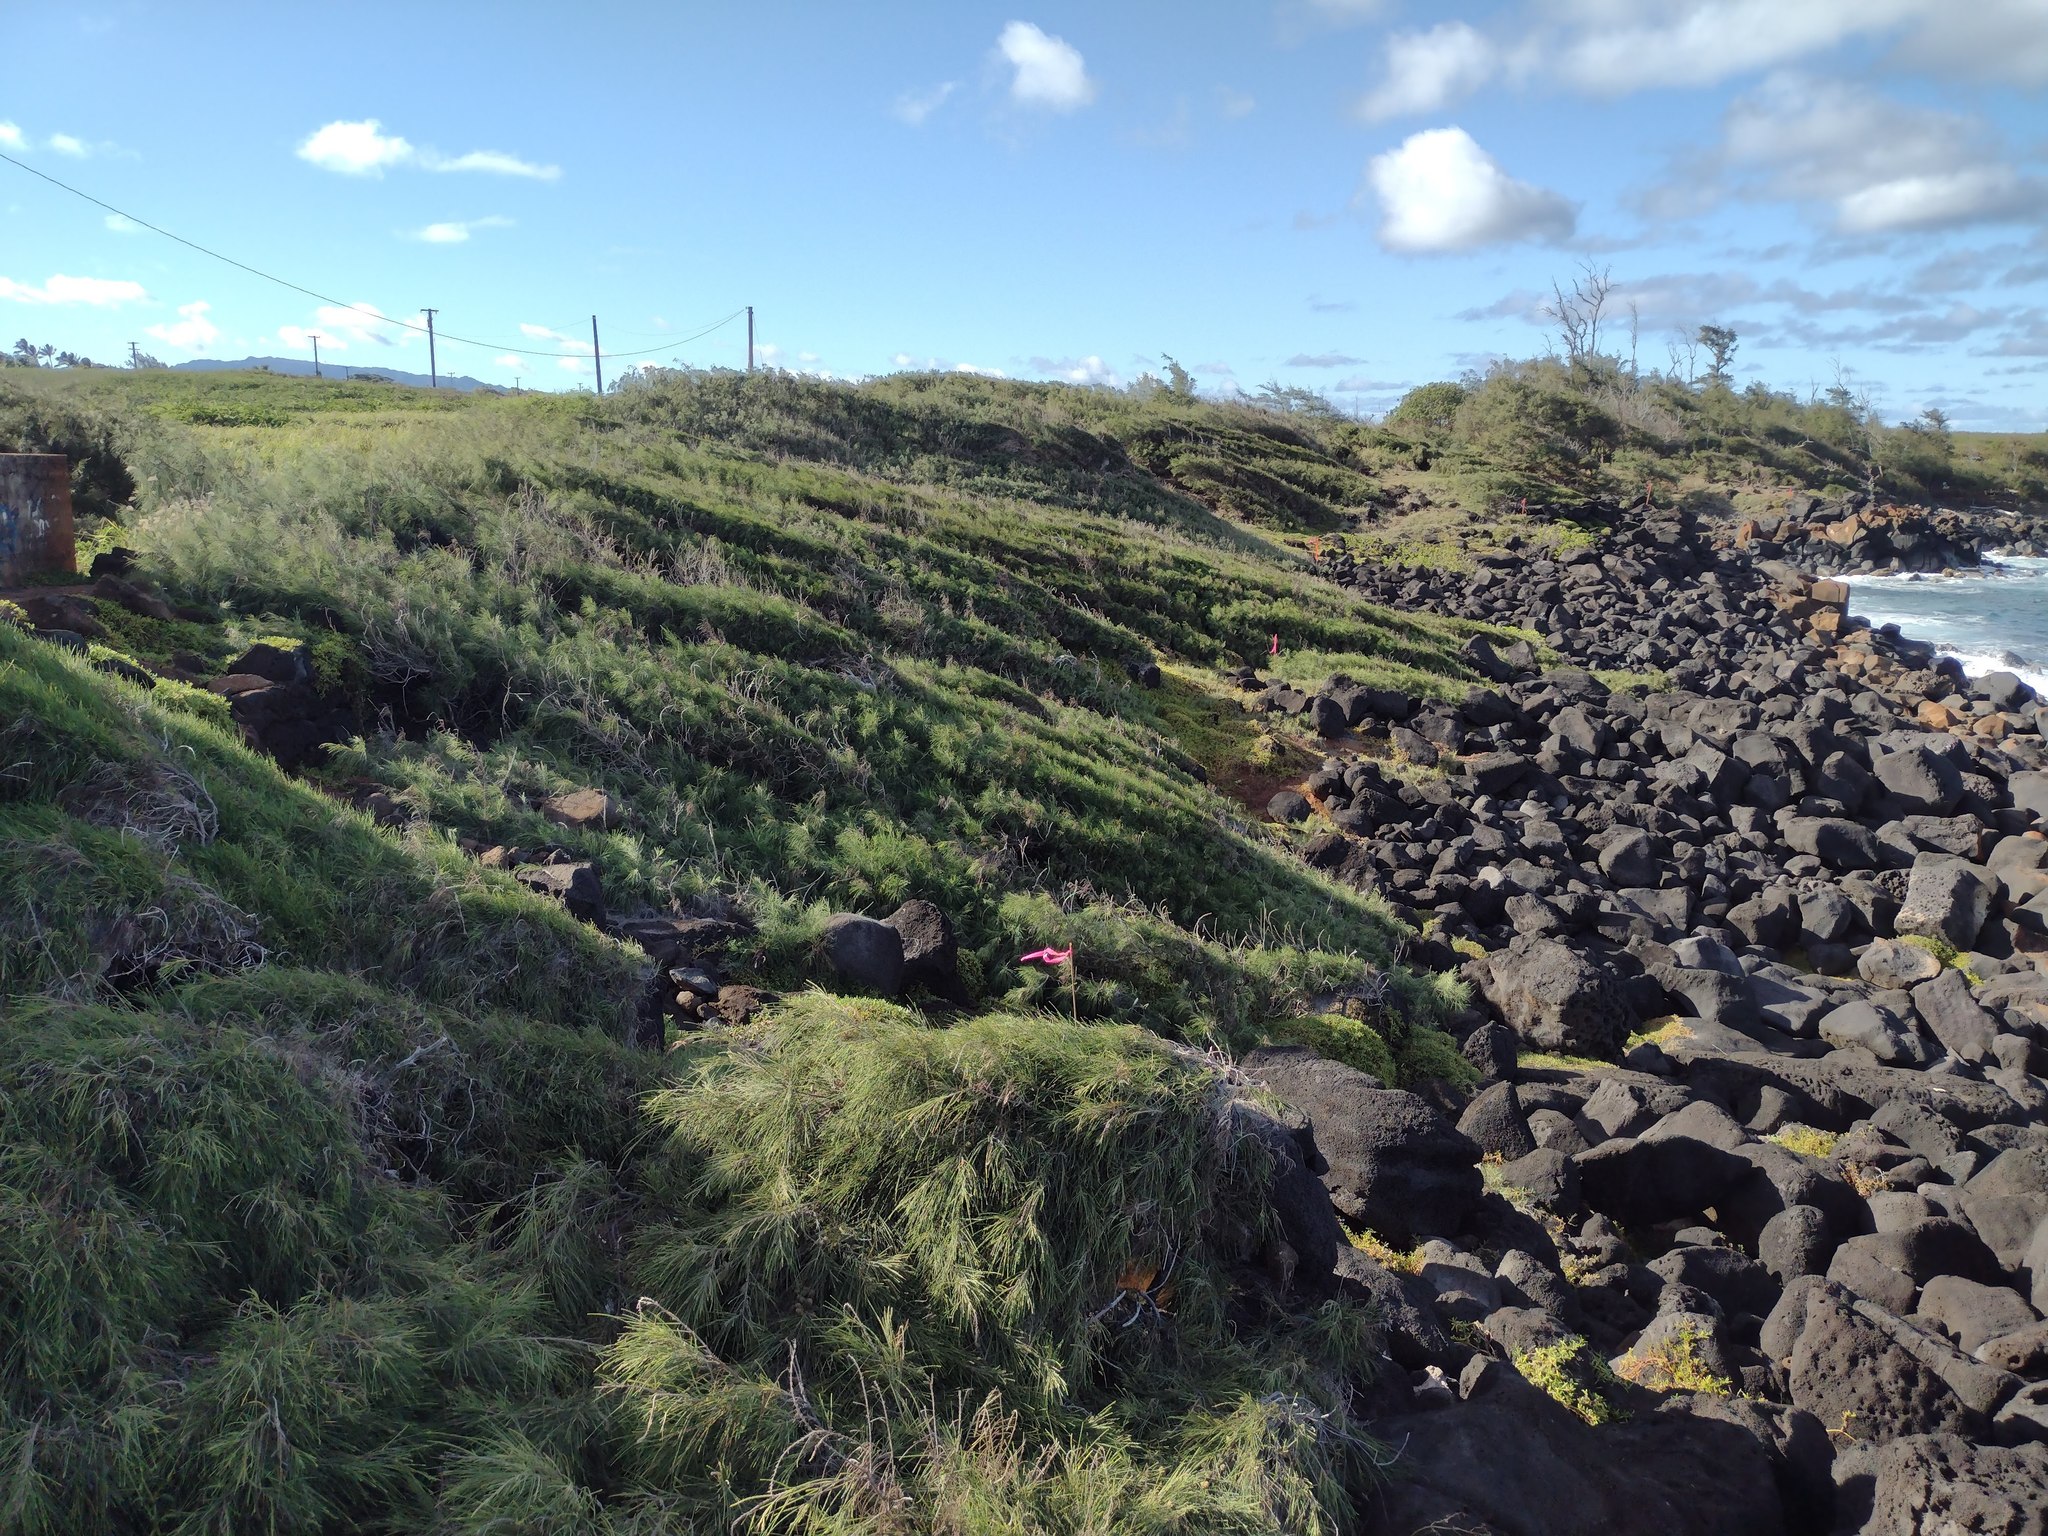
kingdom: Plantae
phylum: Tracheophyta
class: Magnoliopsida
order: Fagales
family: Casuarinaceae
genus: Casuarina
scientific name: Casuarina equisetifolia
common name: Beach sheoak
